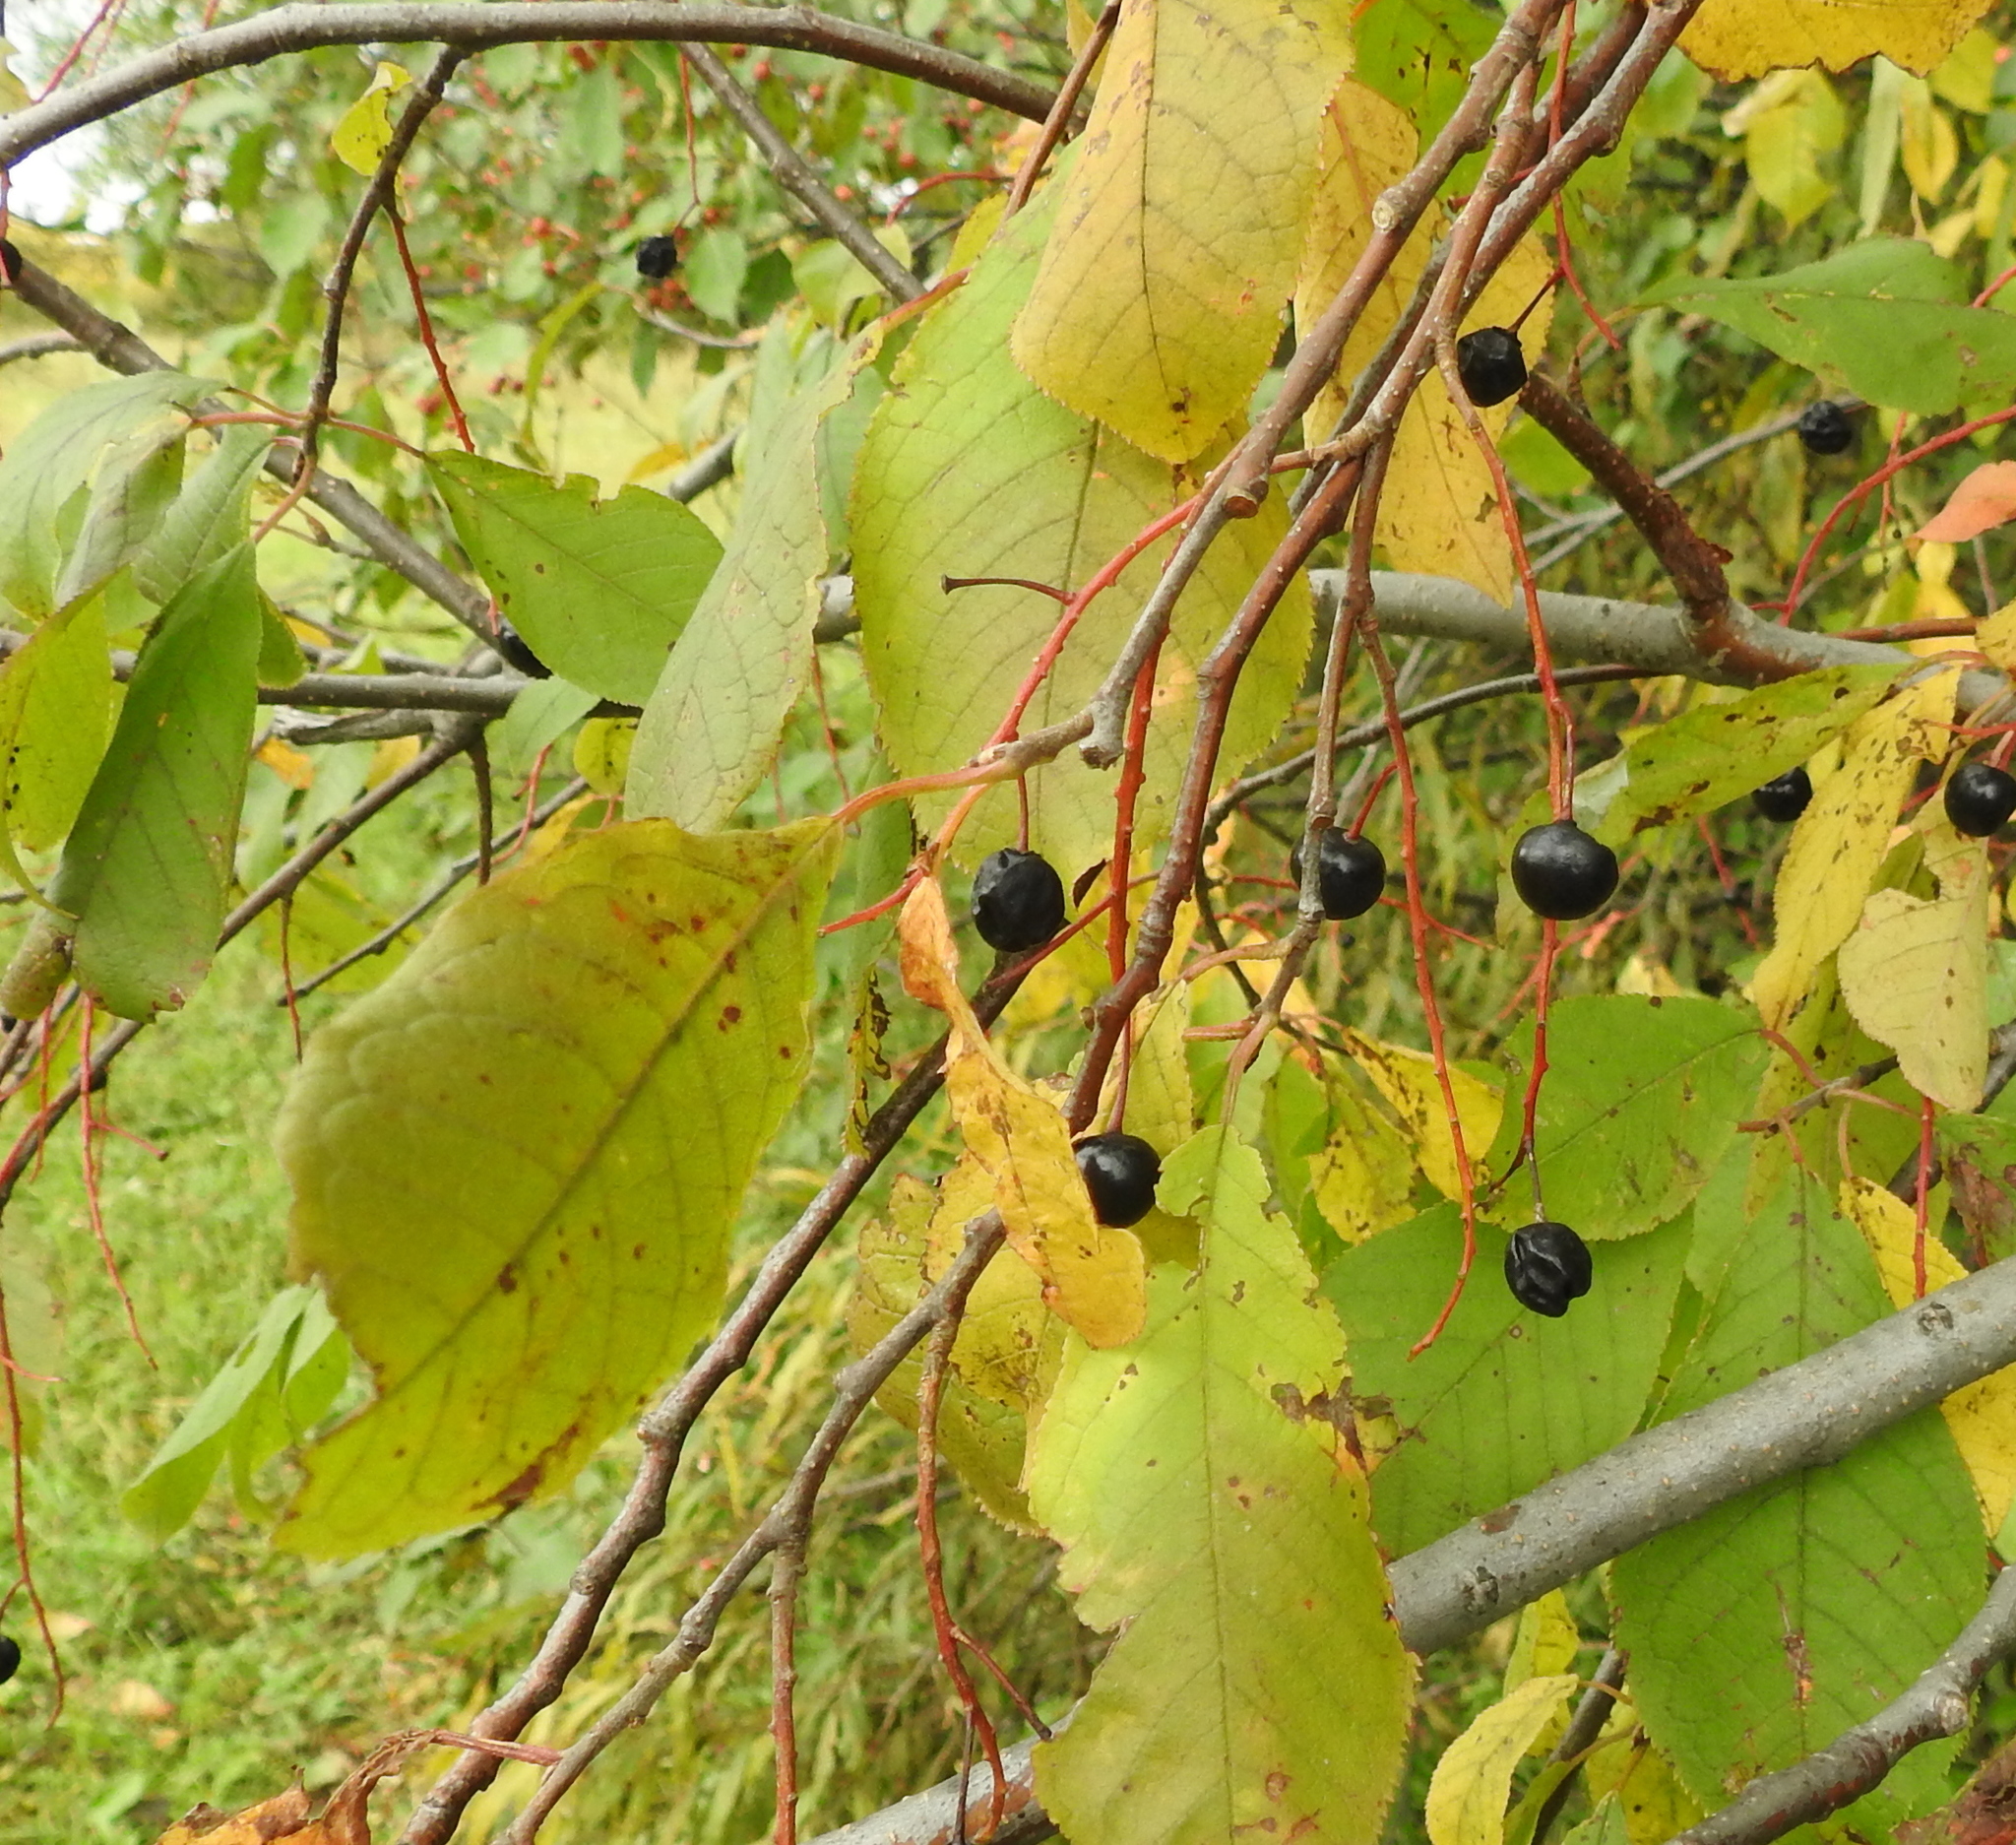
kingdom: Plantae
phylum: Tracheophyta
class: Magnoliopsida
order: Rosales
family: Rosaceae
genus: Prunus
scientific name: Prunus padus
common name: Bird cherry
